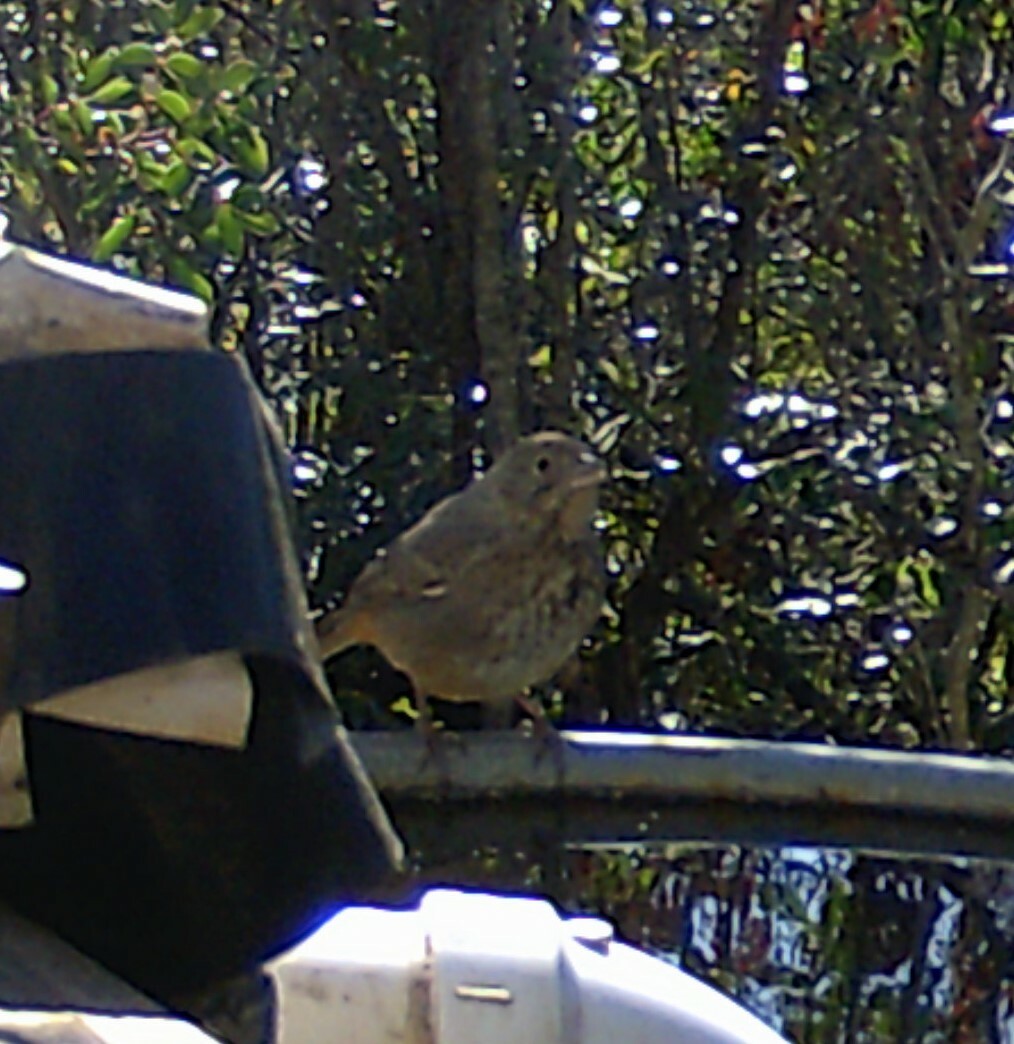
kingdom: Animalia
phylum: Chordata
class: Aves
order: Passeriformes
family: Passerellidae
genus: Melozone
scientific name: Melozone fusca
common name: Canyon towhee
